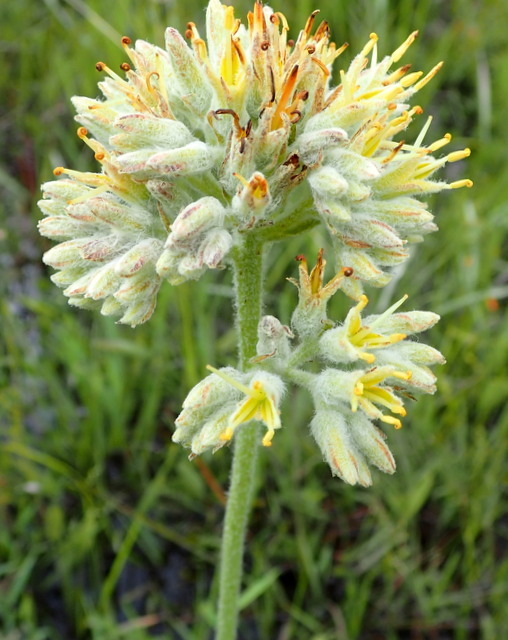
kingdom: Plantae
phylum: Tracheophyta
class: Liliopsida
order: Commelinales
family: Haemodoraceae
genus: Lachnanthes
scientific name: Lachnanthes caroliana
